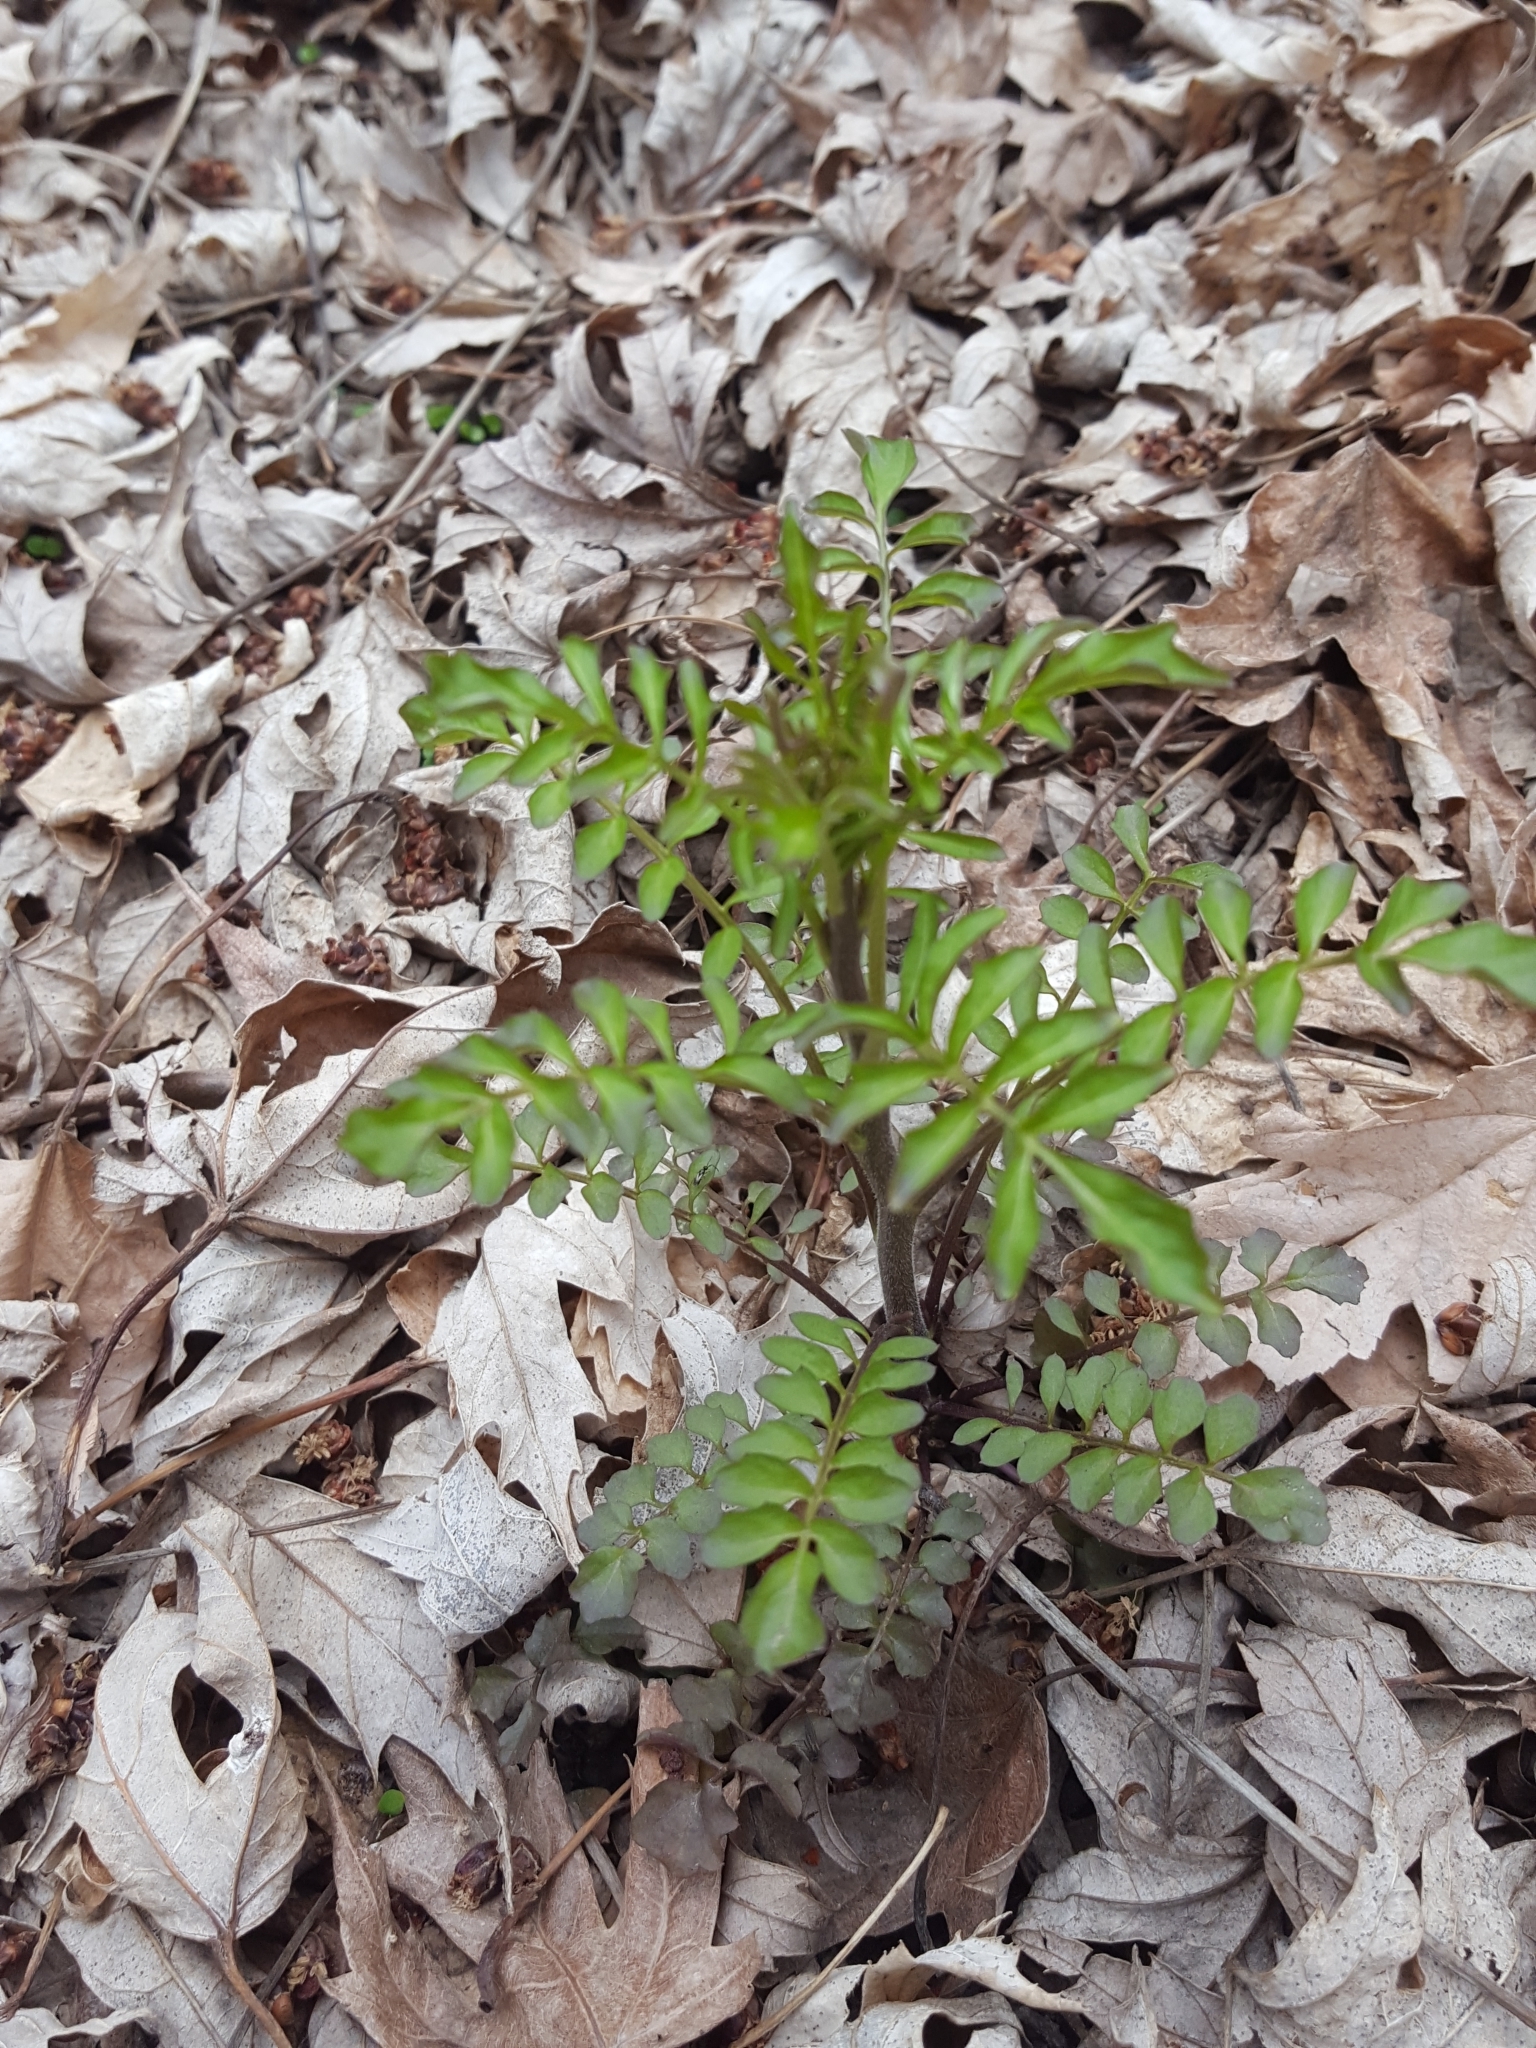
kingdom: Plantae
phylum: Tracheophyta
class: Magnoliopsida
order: Brassicales
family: Brassicaceae
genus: Cardamine
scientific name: Cardamine pensylvanica
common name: Pennsylvania bittercress
